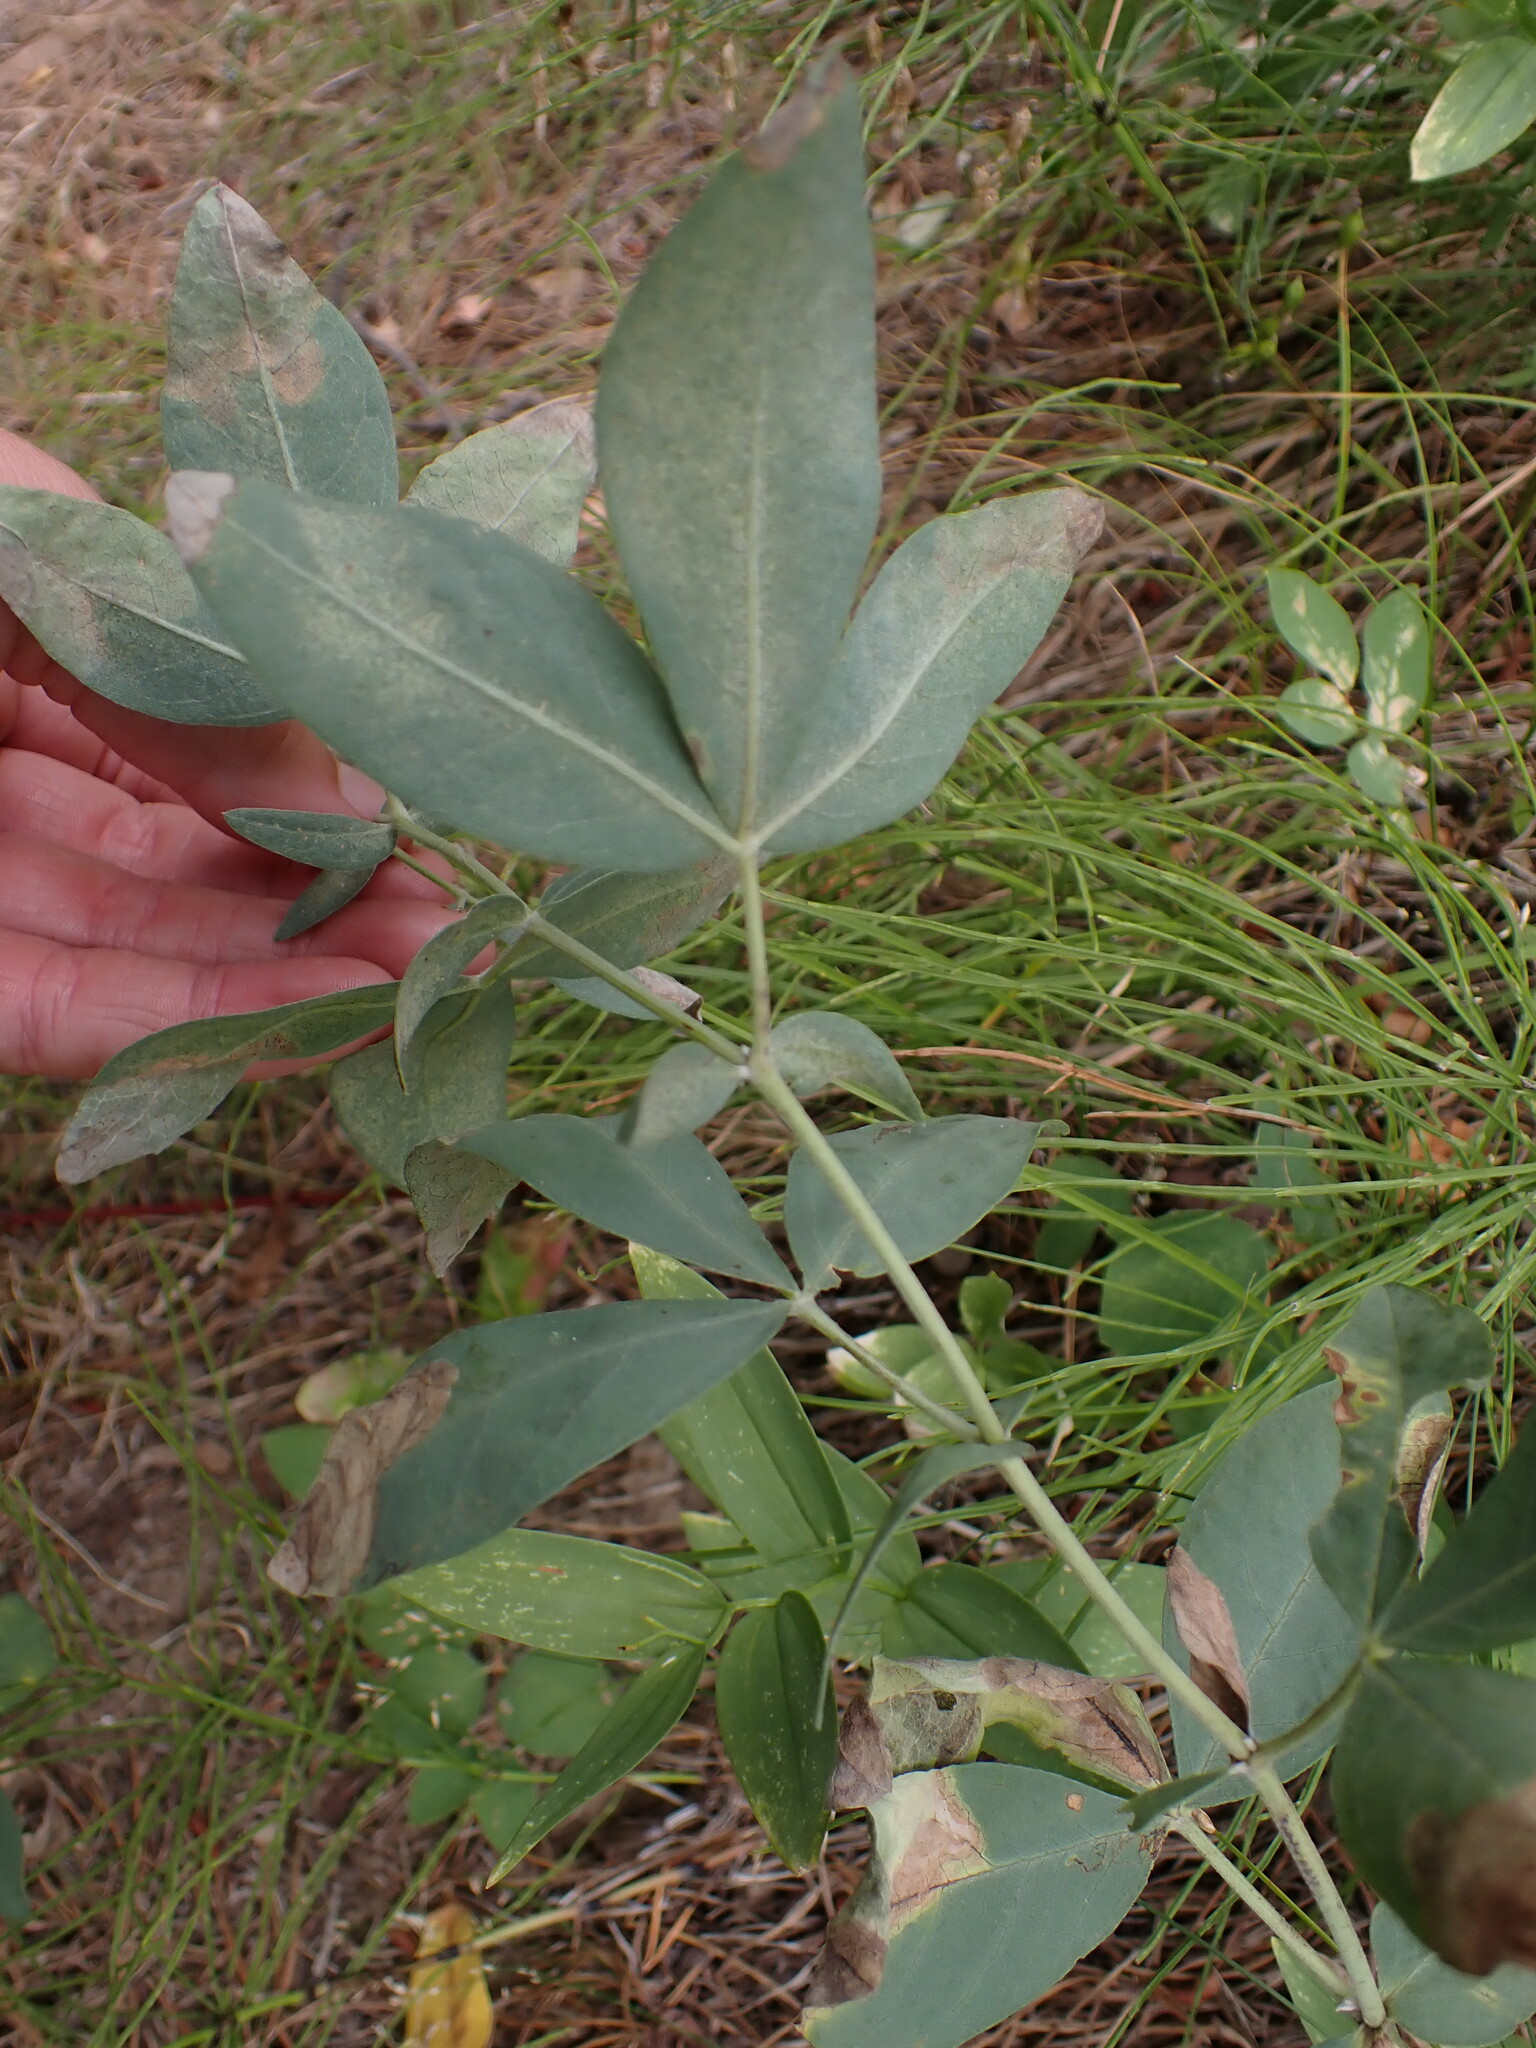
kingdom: Plantae
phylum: Tracheophyta
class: Magnoliopsida
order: Fabales
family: Fabaceae
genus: Thermopsis
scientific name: Thermopsis rhombifolia
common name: Circle-pod-pea
